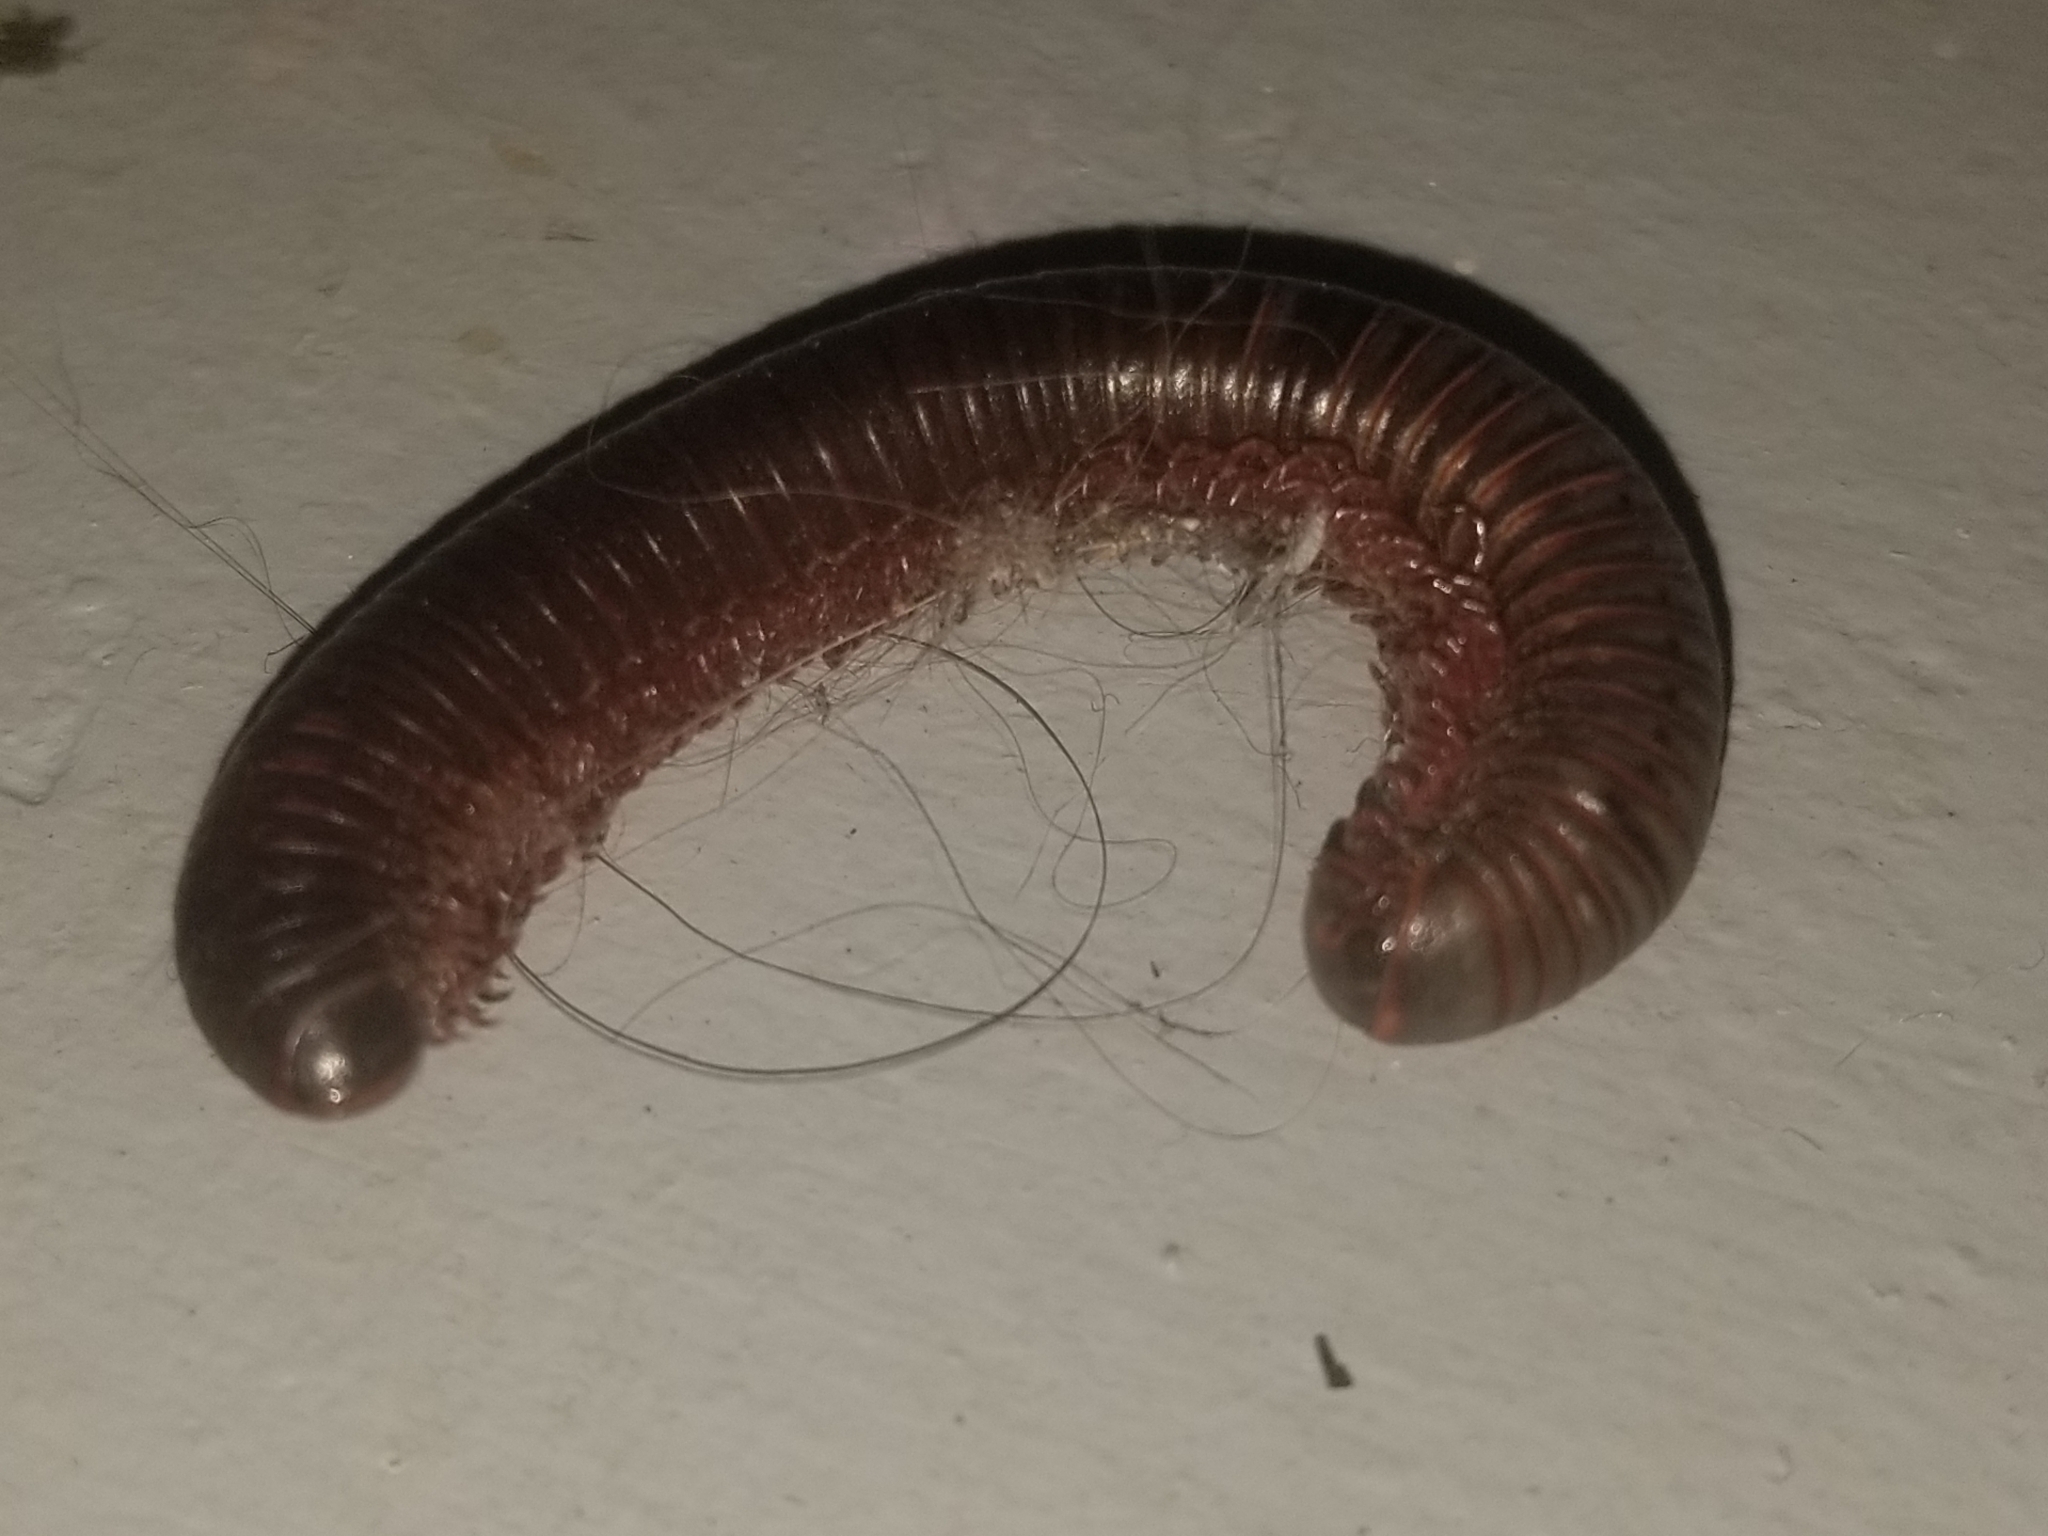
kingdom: Animalia
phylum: Arthropoda
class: Diplopoda
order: Spirobolida
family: Spirobolidae
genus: Narceus
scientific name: Narceus
